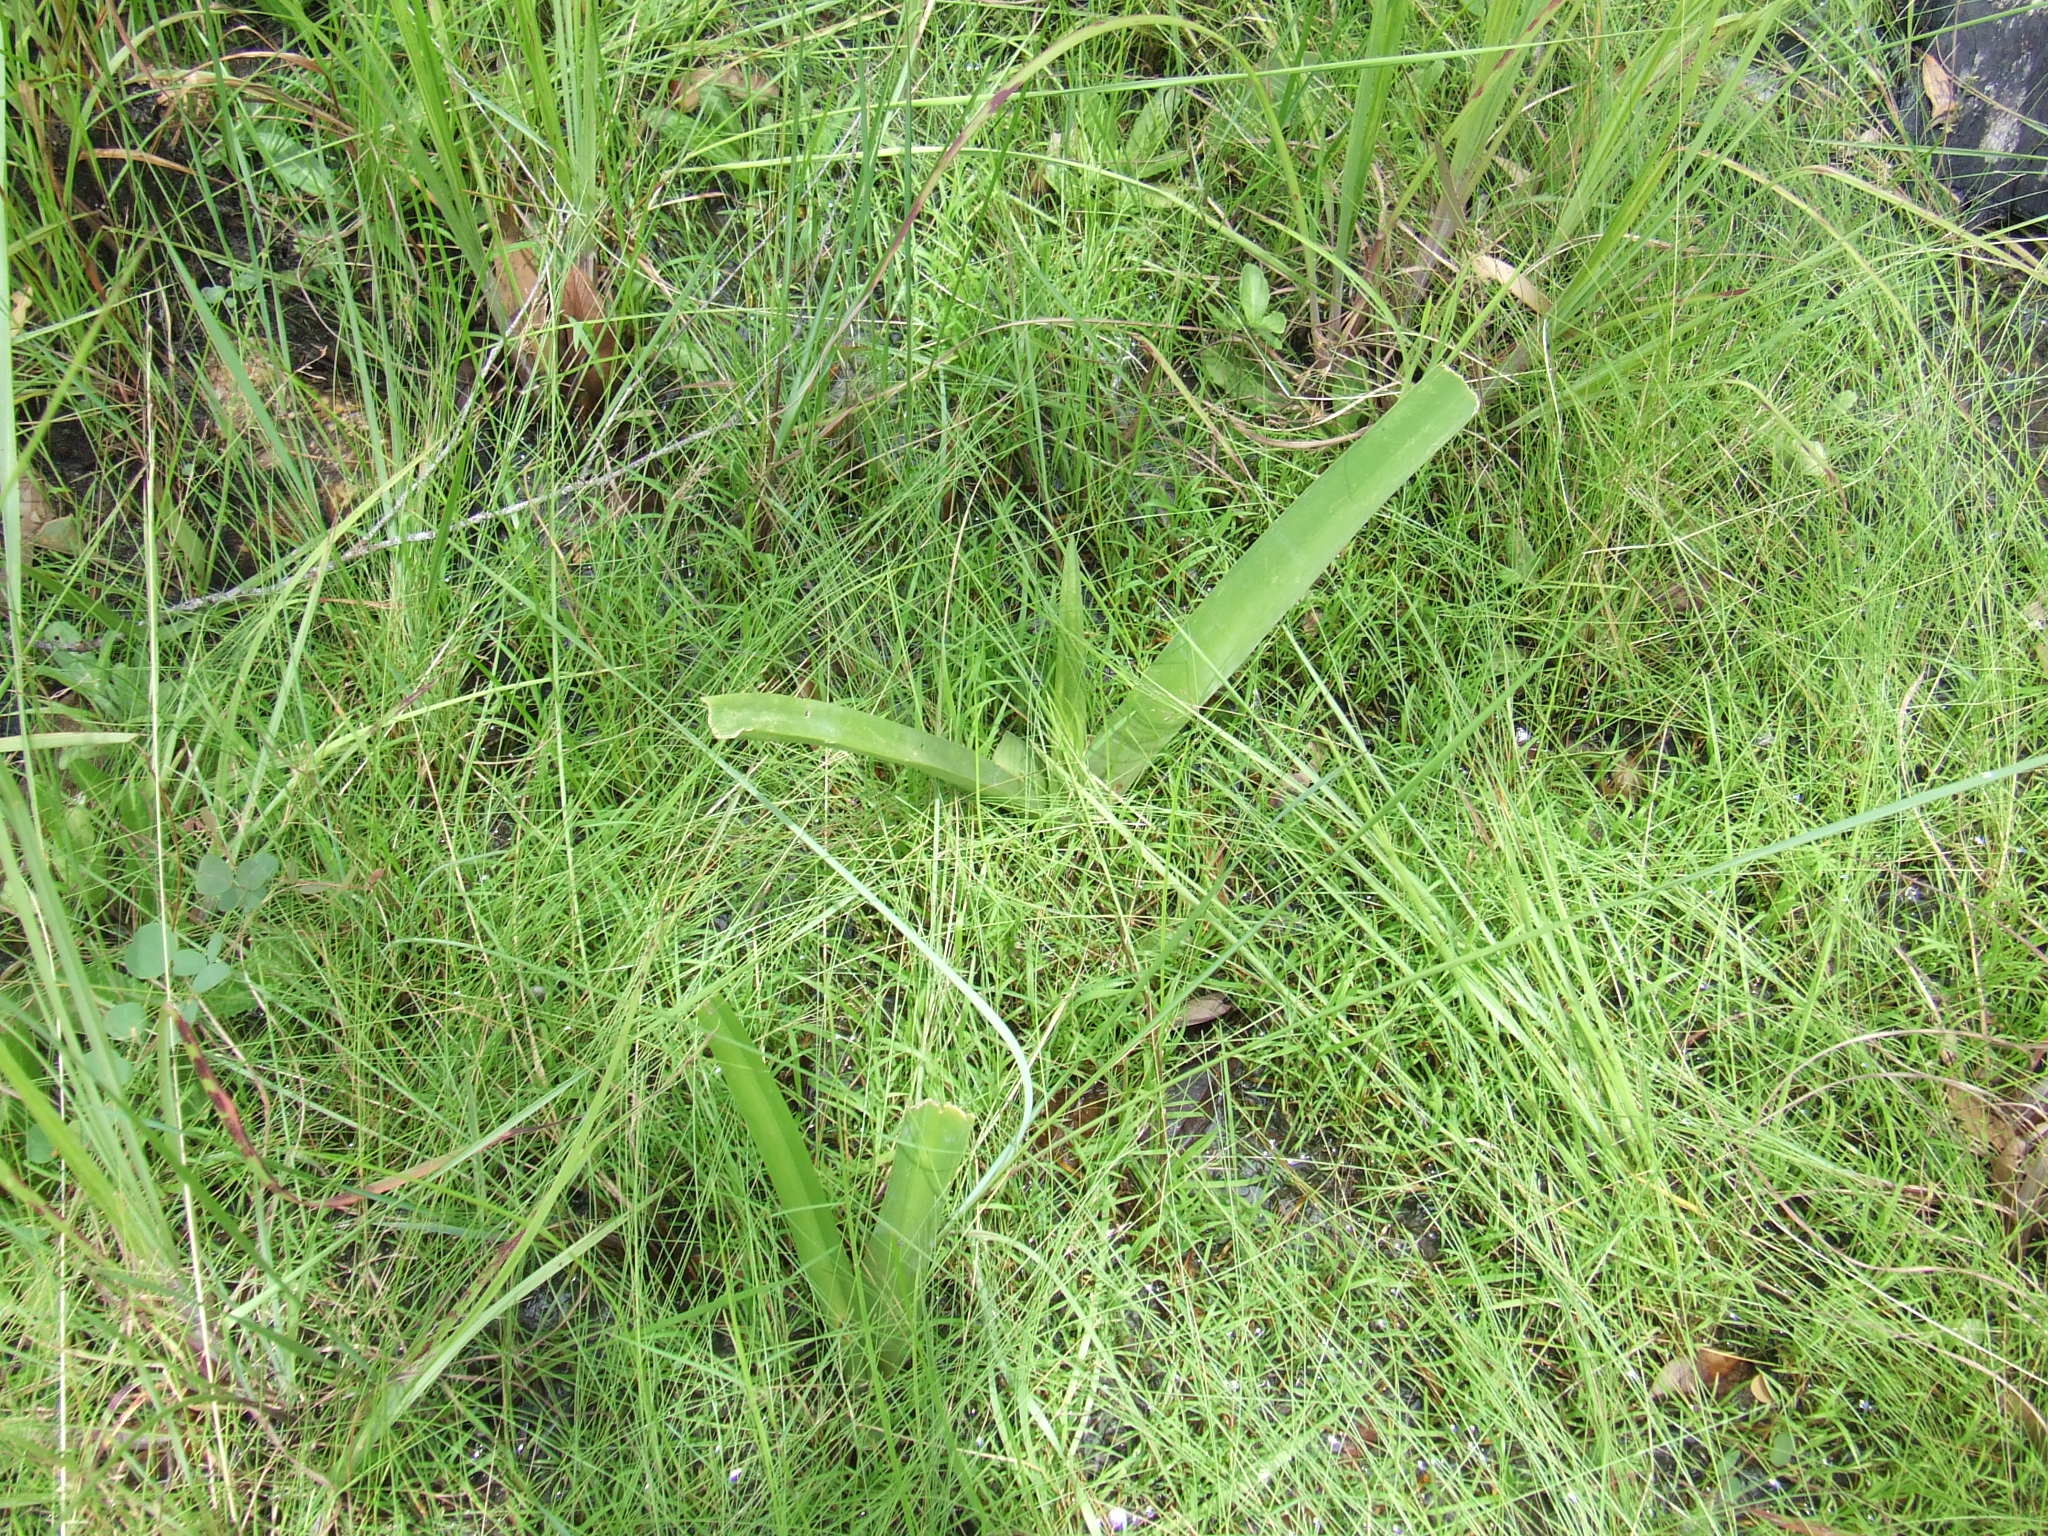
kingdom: Plantae
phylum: Tracheophyta
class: Liliopsida
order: Asparagales
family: Amaryllidaceae
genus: Crinum
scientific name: Crinum arenarium
